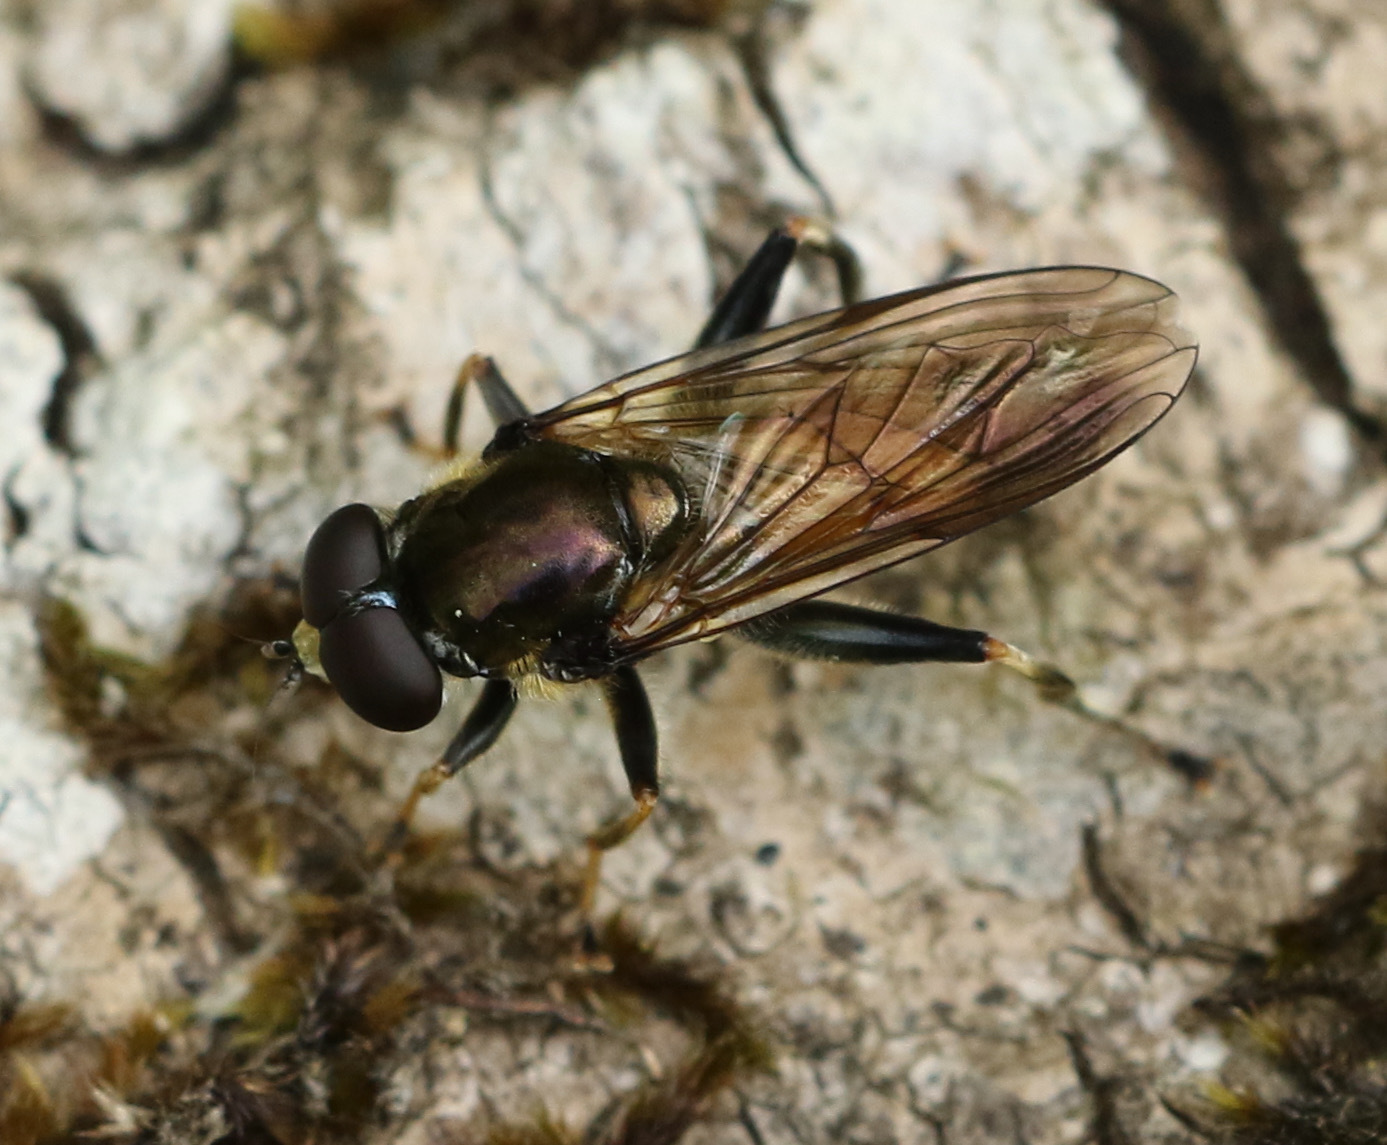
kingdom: Animalia
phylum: Arthropoda
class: Insecta
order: Diptera
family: Syrphidae
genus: Xylota
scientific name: Xylota segnis
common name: Brown-toed forest fly
